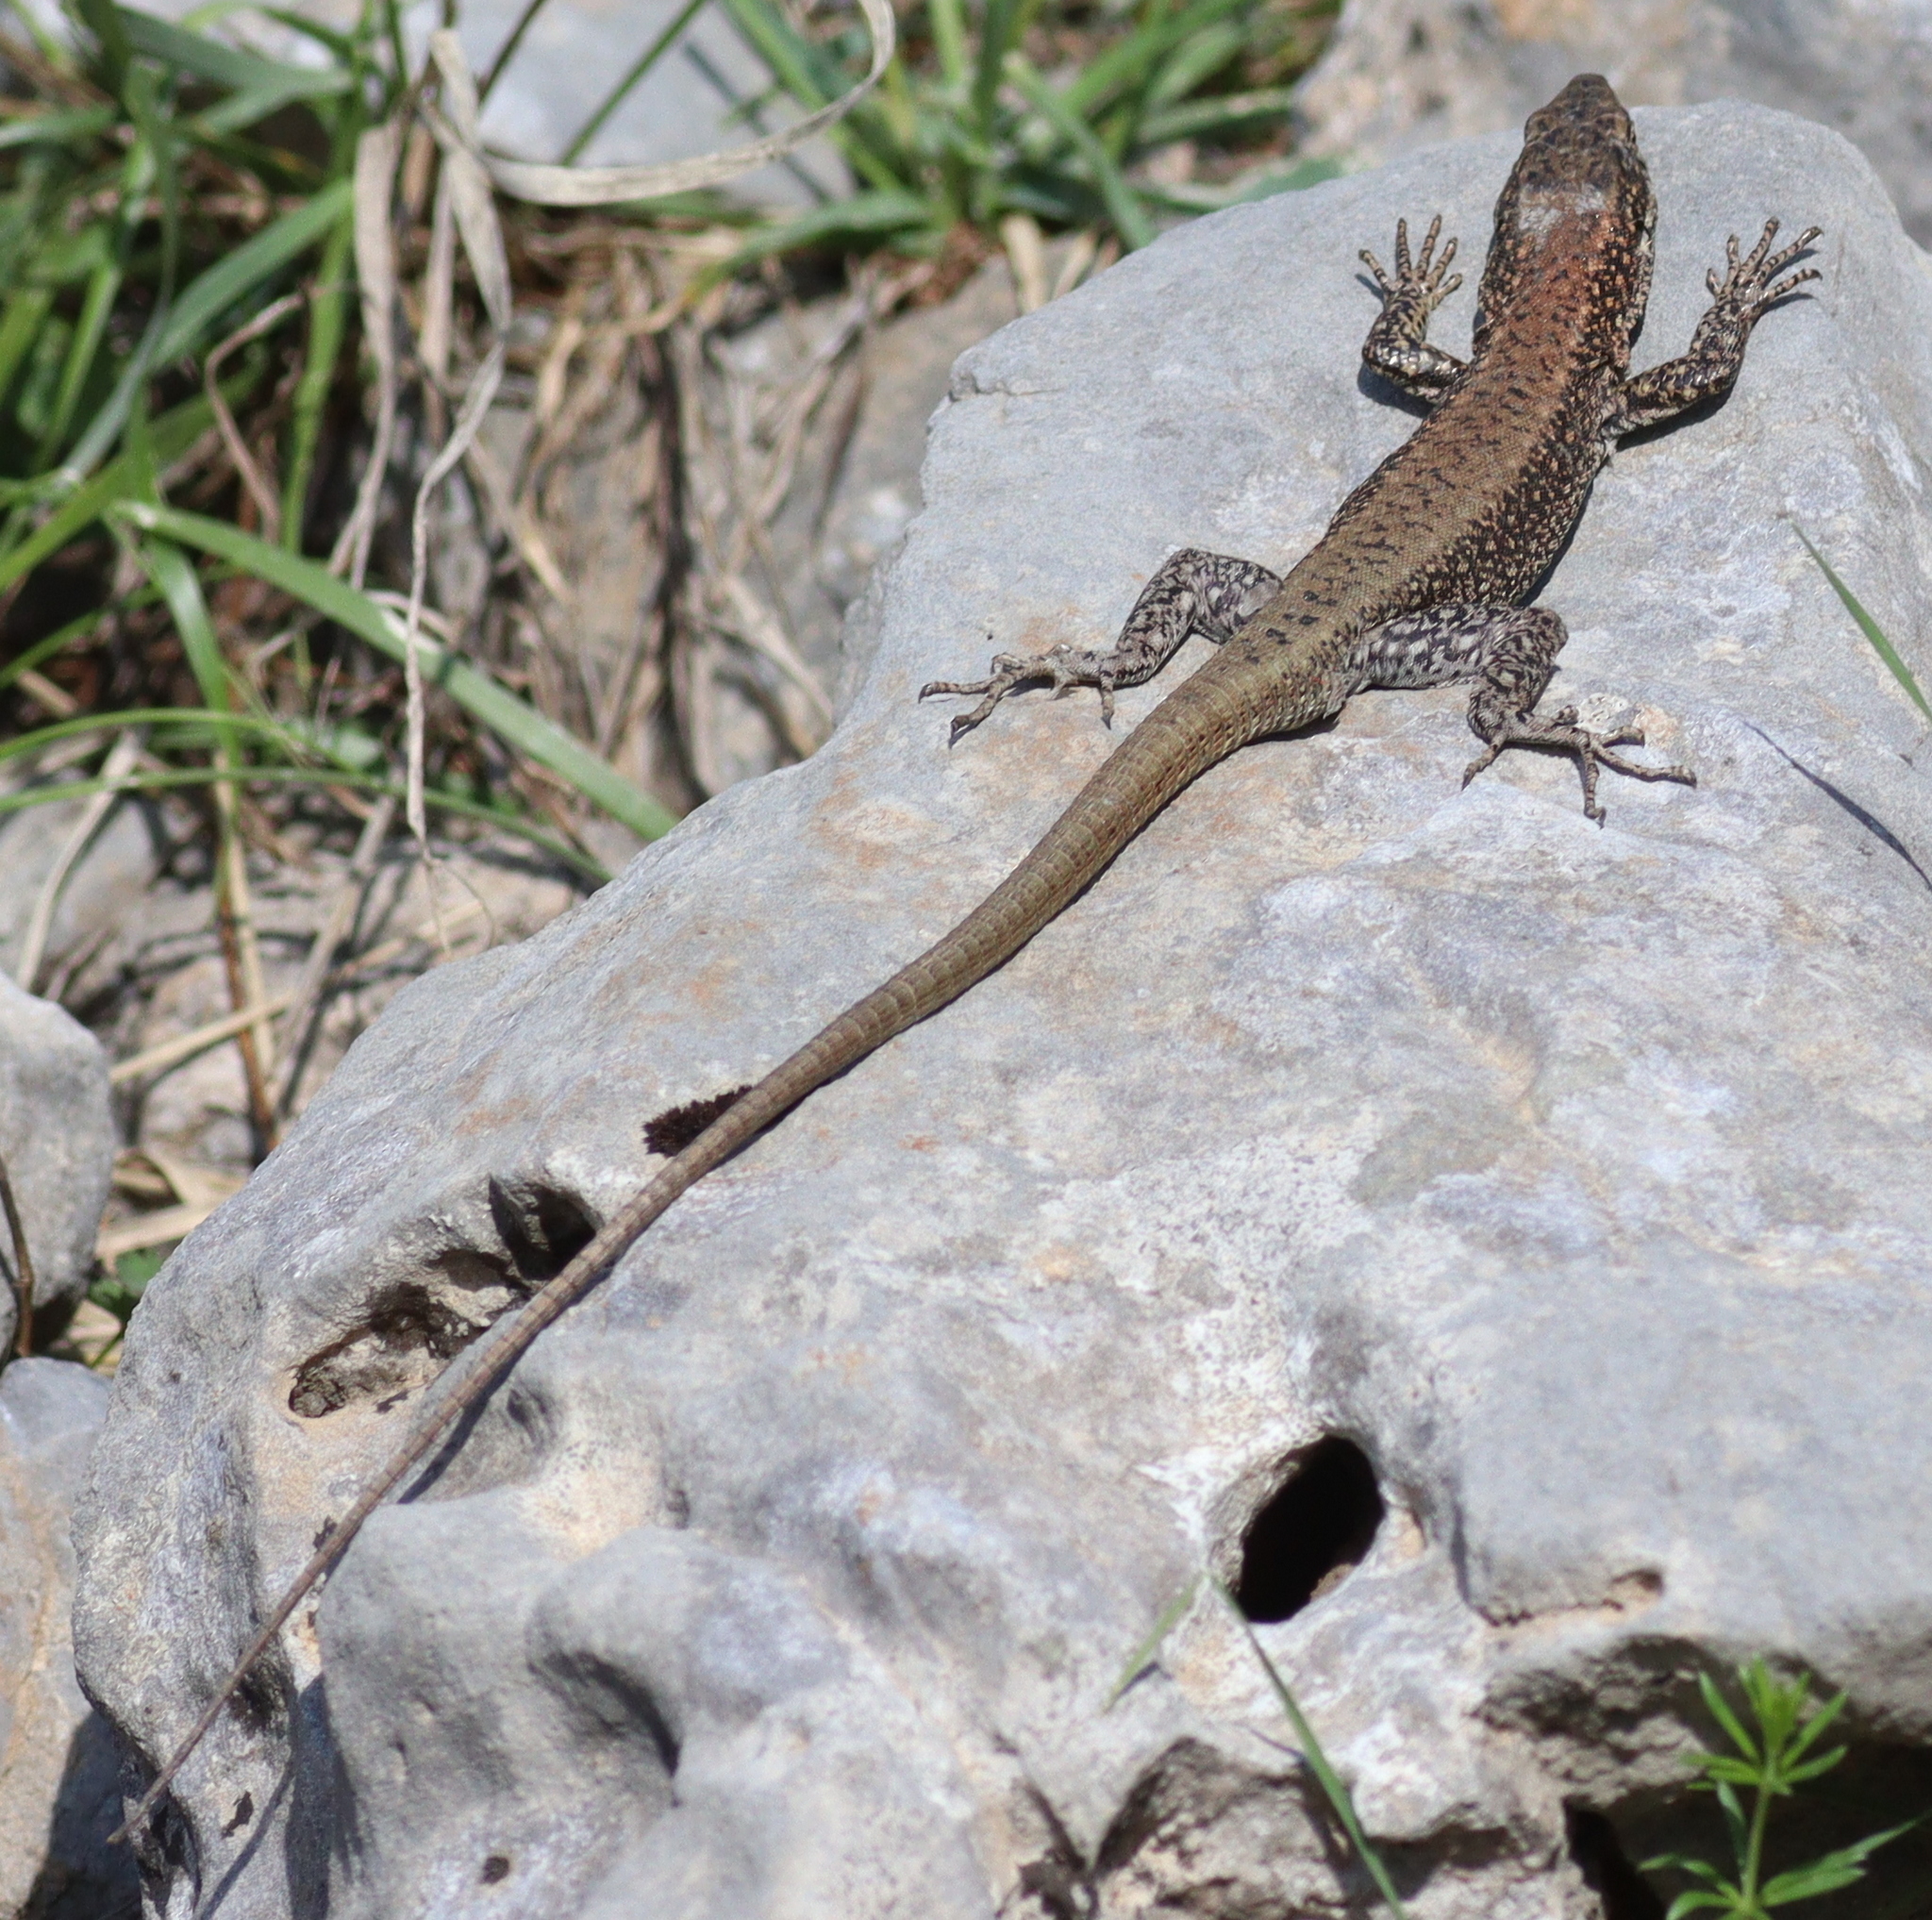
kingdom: Animalia
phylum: Chordata
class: Squamata
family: Lacertidae
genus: Anatololacerta
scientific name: Anatololacerta danfordi
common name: Danford's lizard
